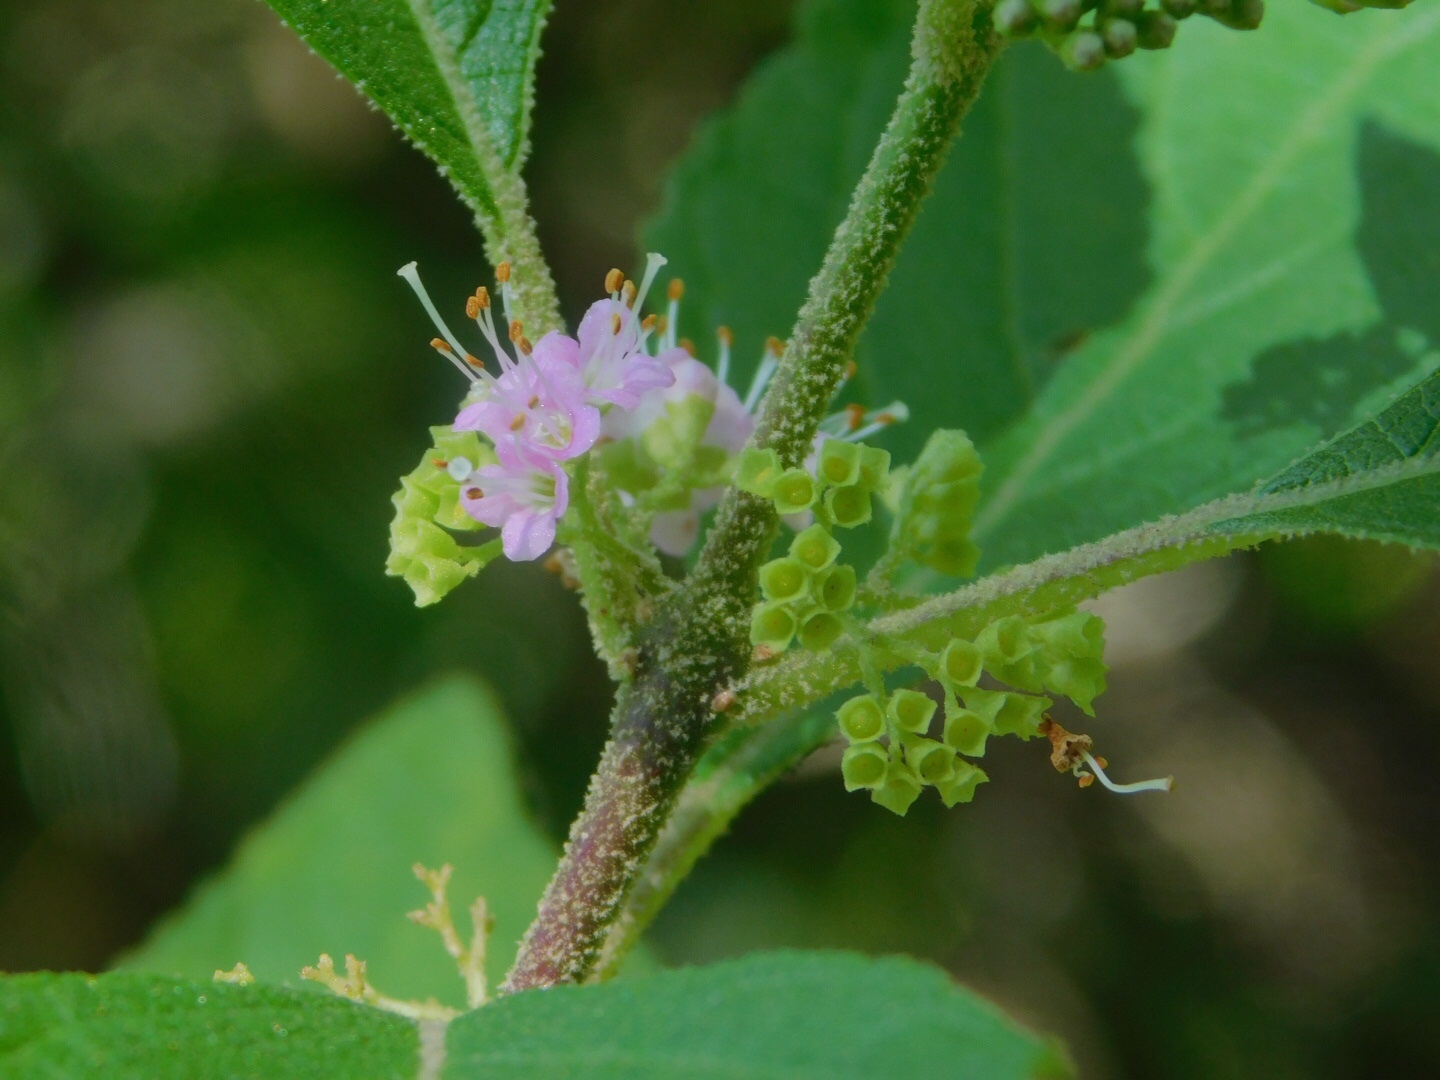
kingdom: Plantae
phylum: Tracheophyta
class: Magnoliopsida
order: Lamiales
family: Lamiaceae
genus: Callicarpa
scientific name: Callicarpa americana
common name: American beautyberry
